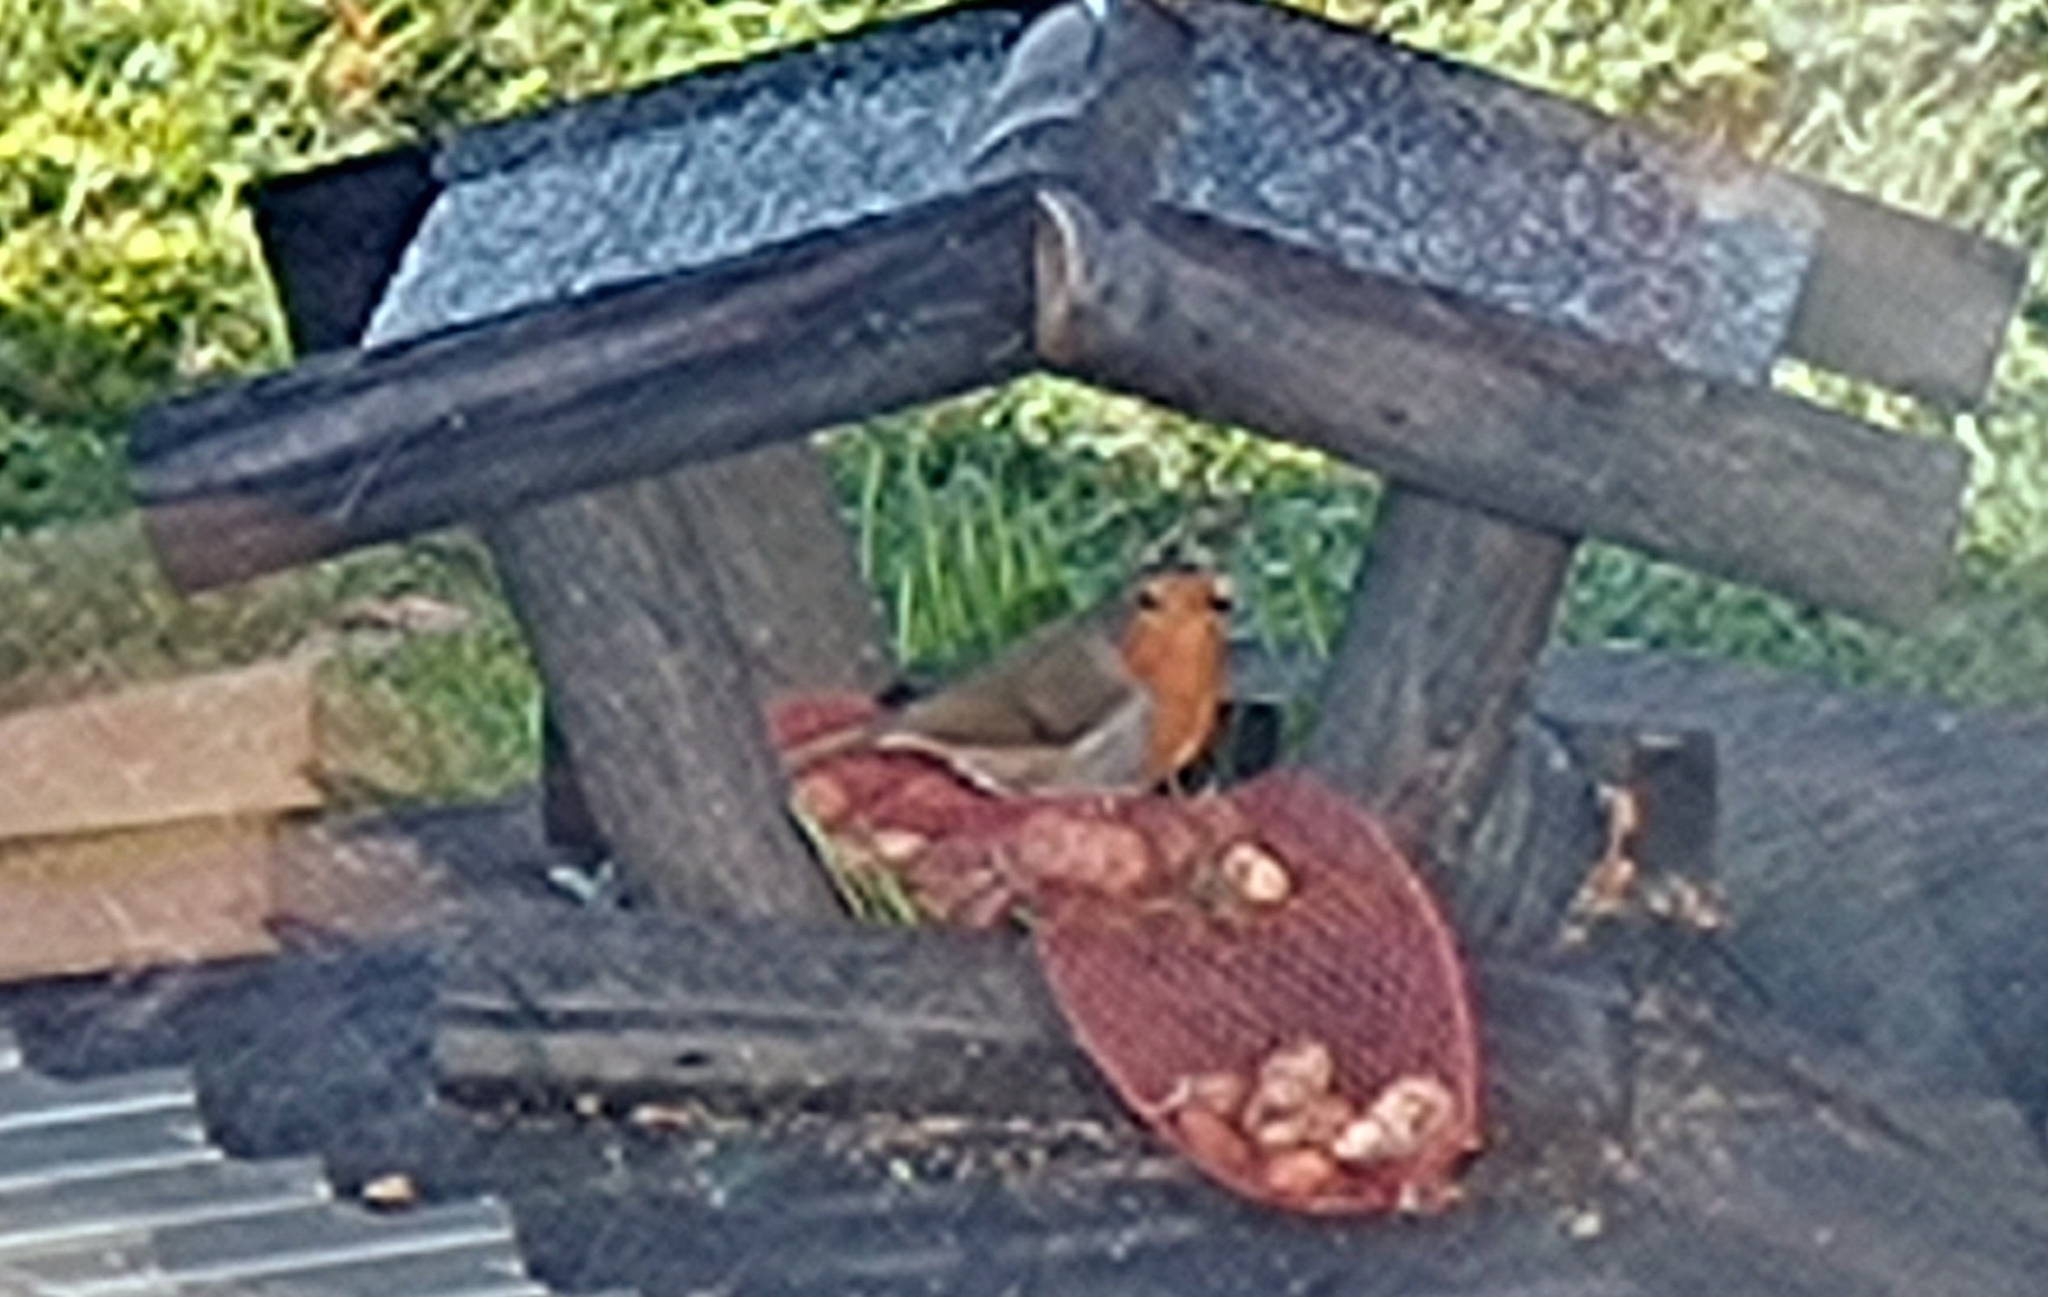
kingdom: Animalia
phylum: Chordata
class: Aves
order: Passeriformes
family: Muscicapidae
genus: Erithacus
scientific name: Erithacus rubecula
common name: European robin
